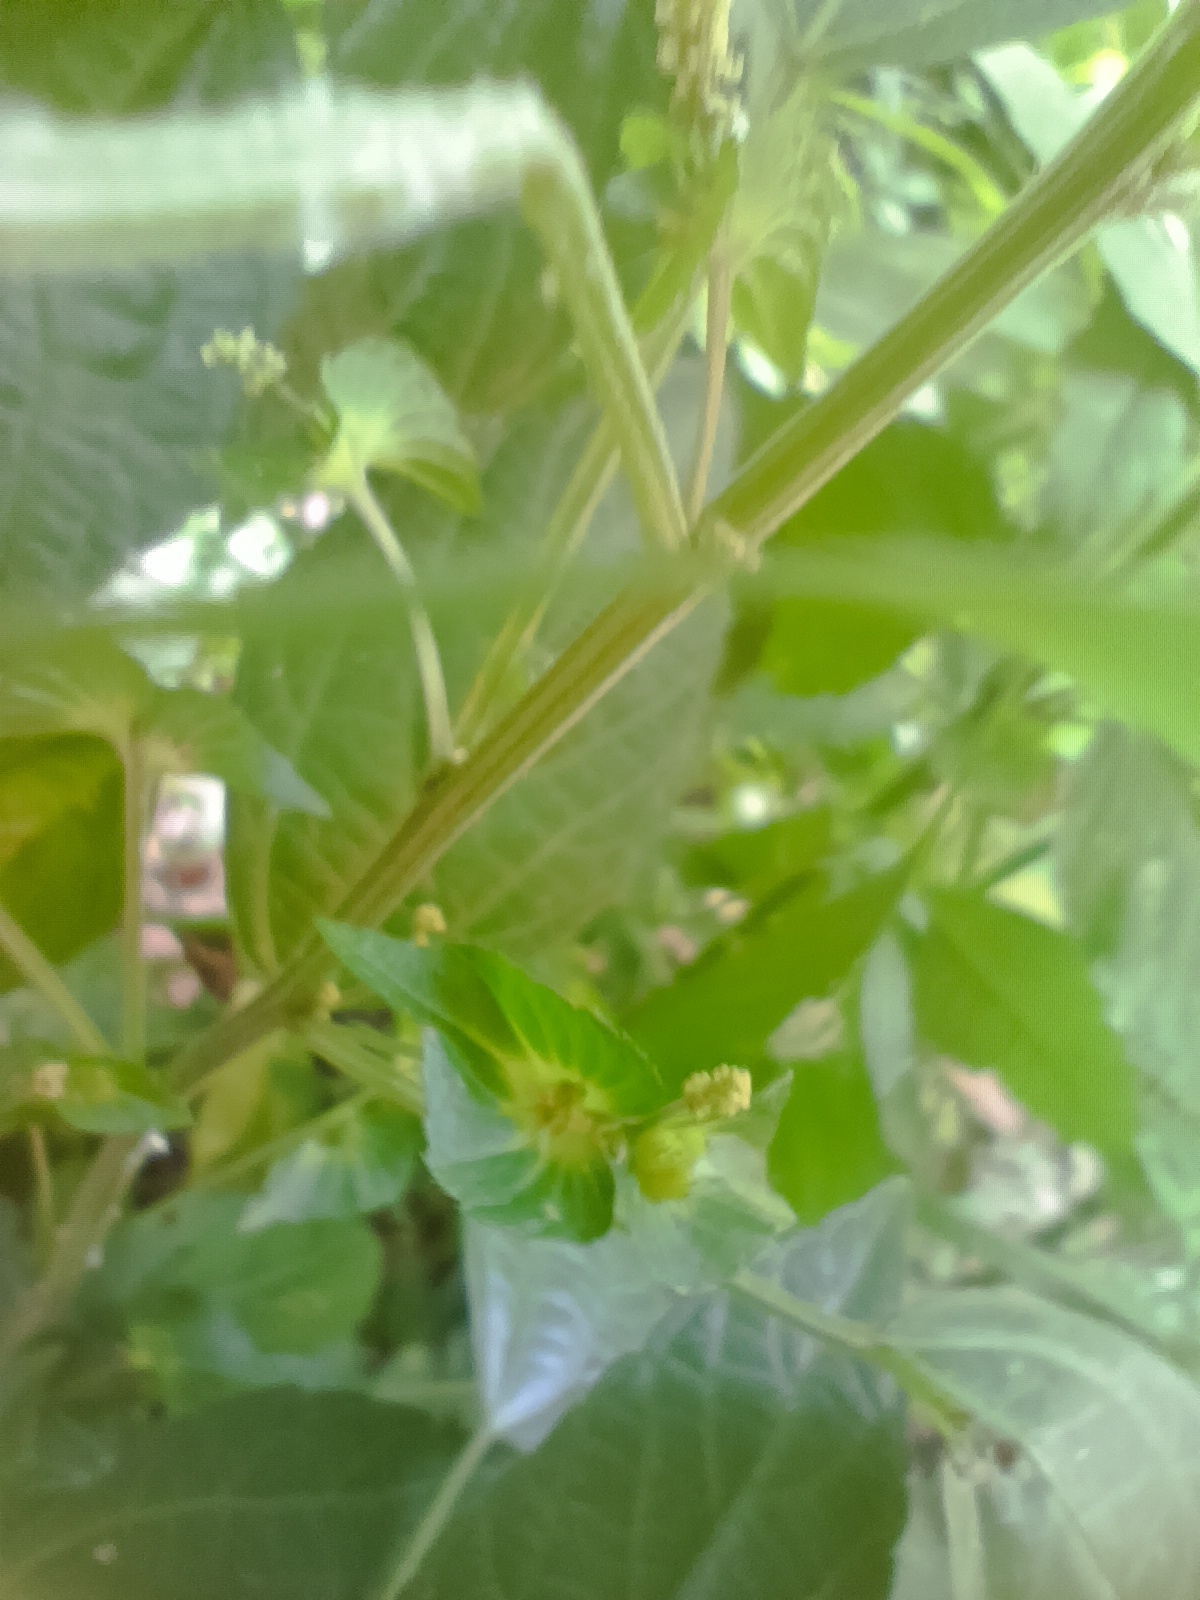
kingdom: Plantae
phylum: Tracheophyta
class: Magnoliopsida
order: Malpighiales
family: Euphorbiaceae
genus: Acalypha
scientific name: Acalypha australis
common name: Asian copperleaf
